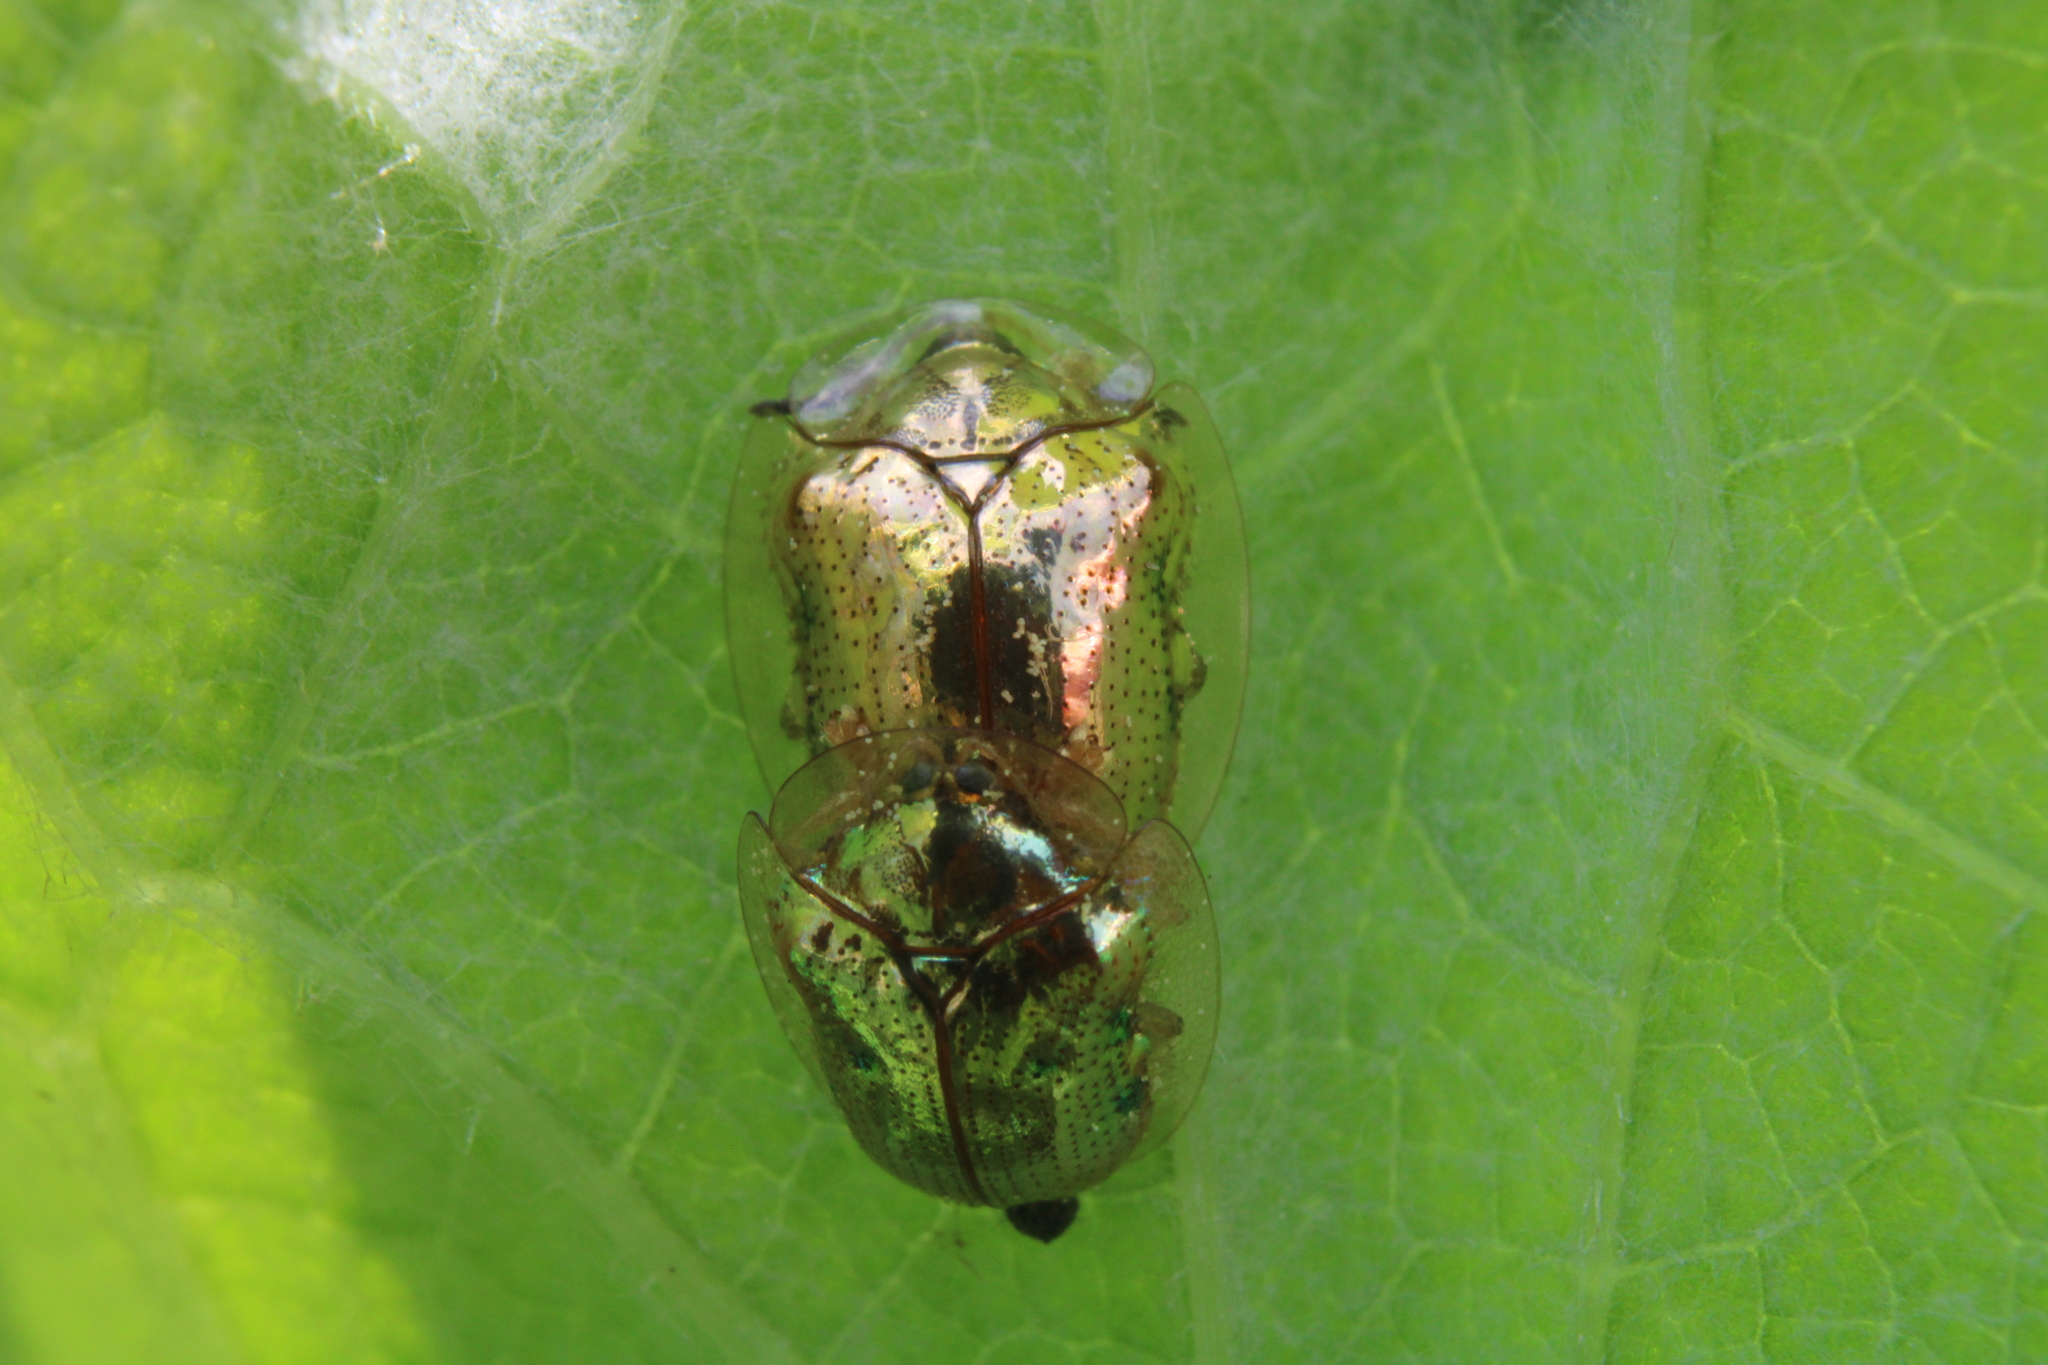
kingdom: Animalia
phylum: Arthropoda
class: Insecta
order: Coleoptera
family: Chrysomelidae
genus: Charidotella
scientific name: Charidotella sexpunctata
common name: Golden tortoise beetle
